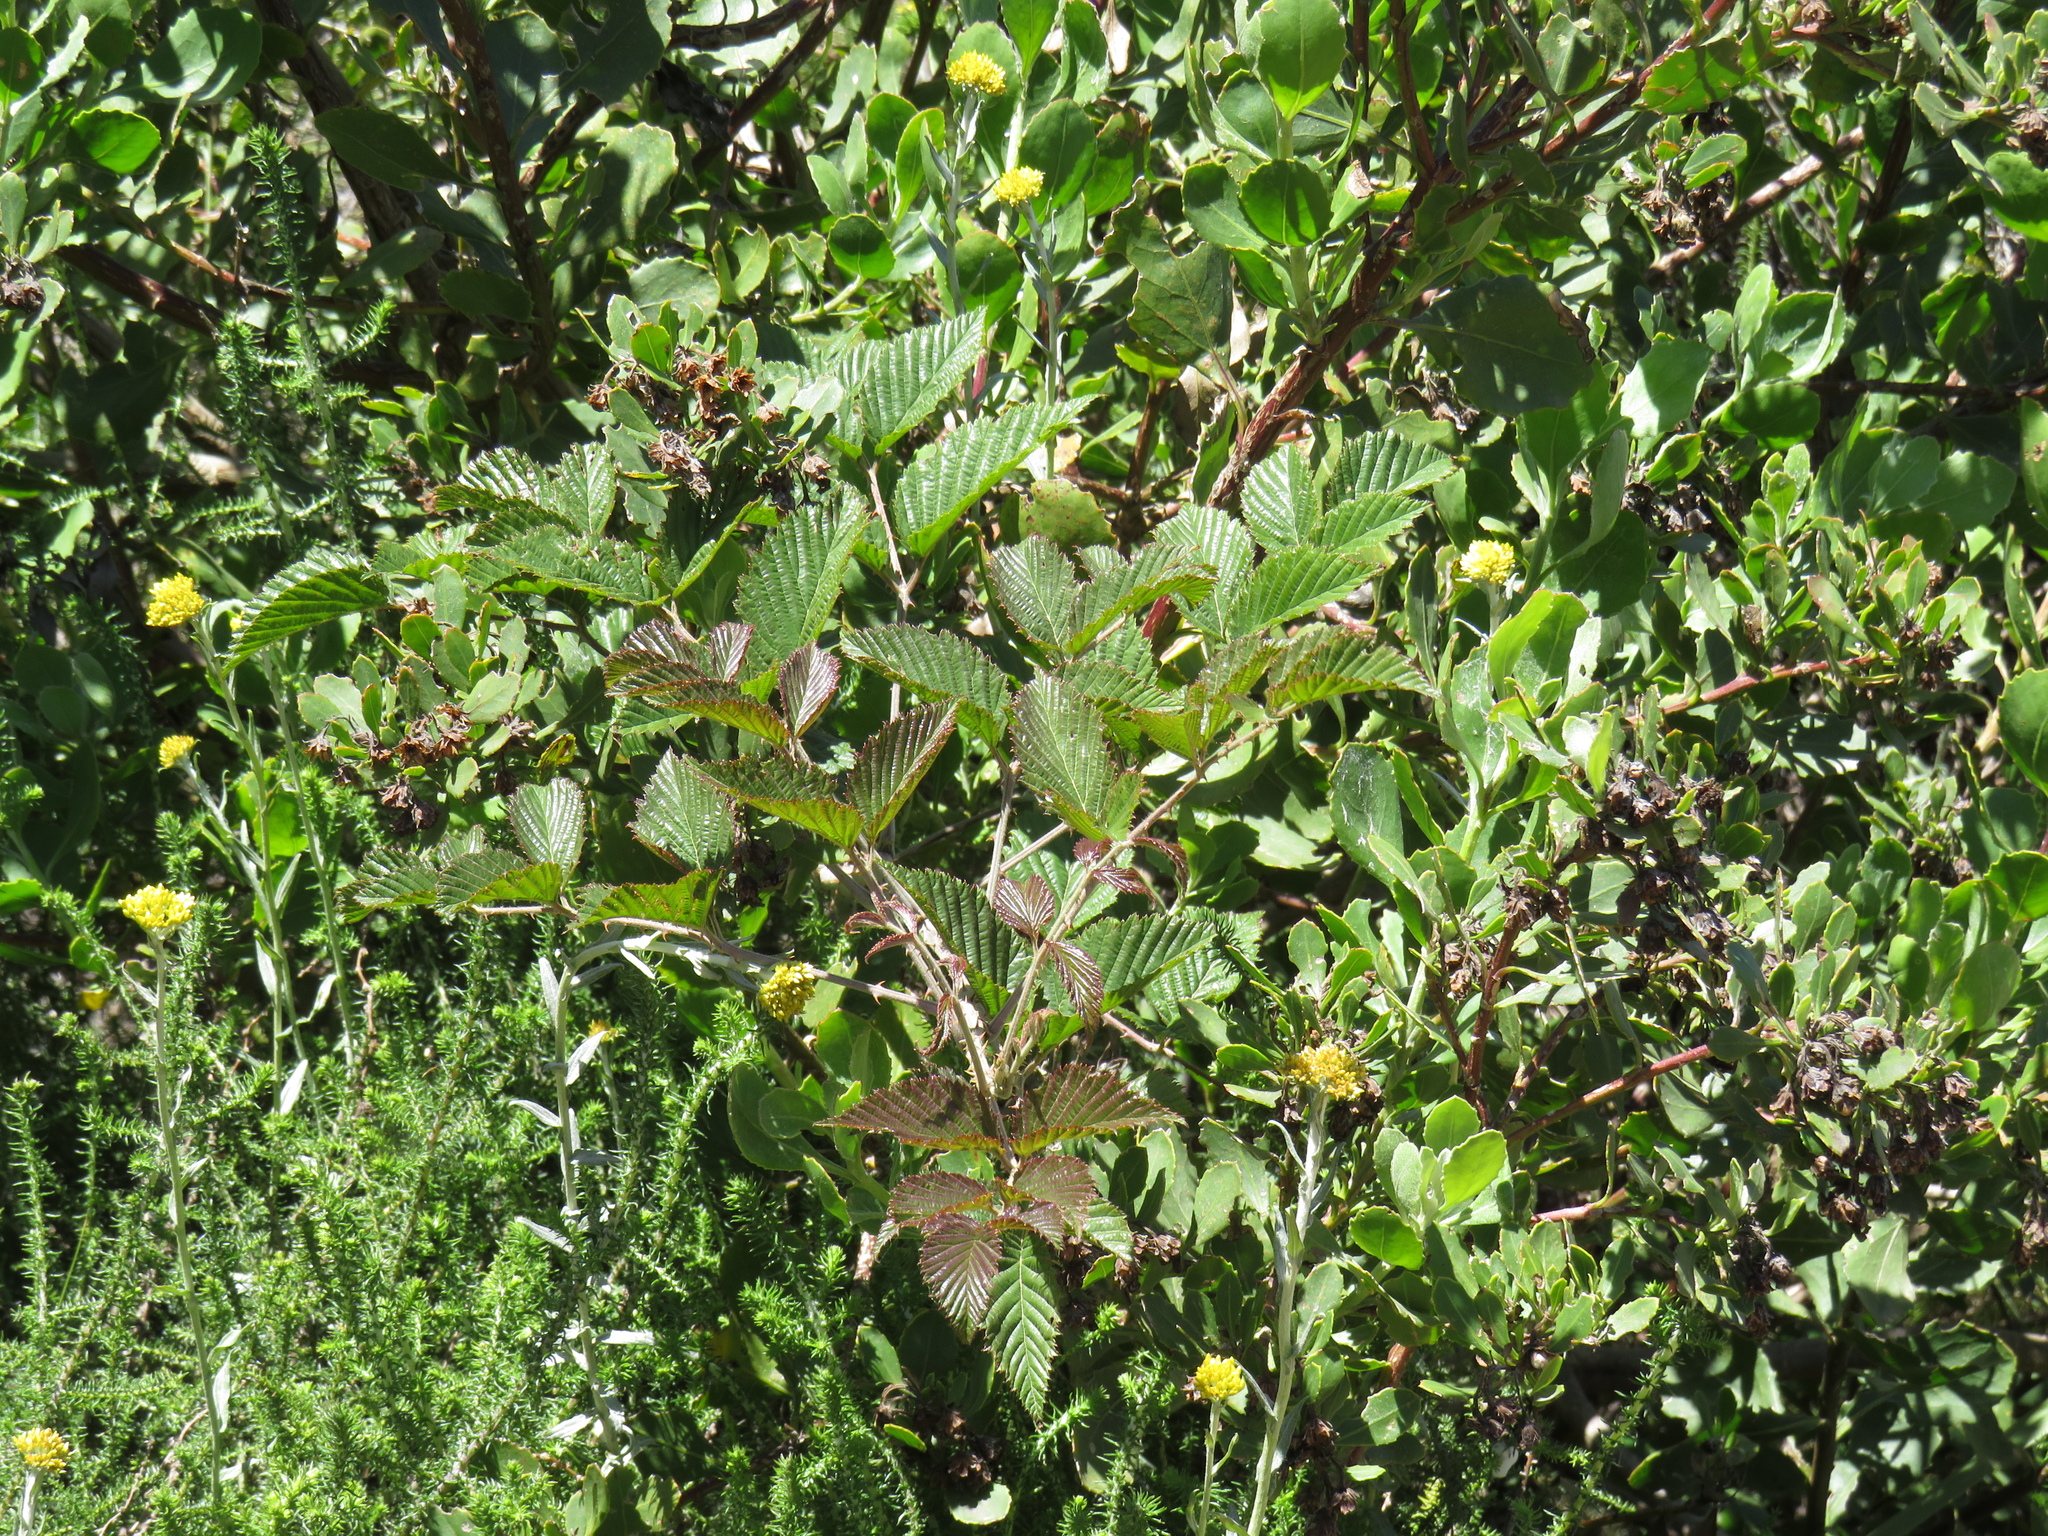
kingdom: Plantae
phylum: Tracheophyta
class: Magnoliopsida
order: Rosales
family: Rosaceae
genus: Rubus
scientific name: Rubus pinnatus
